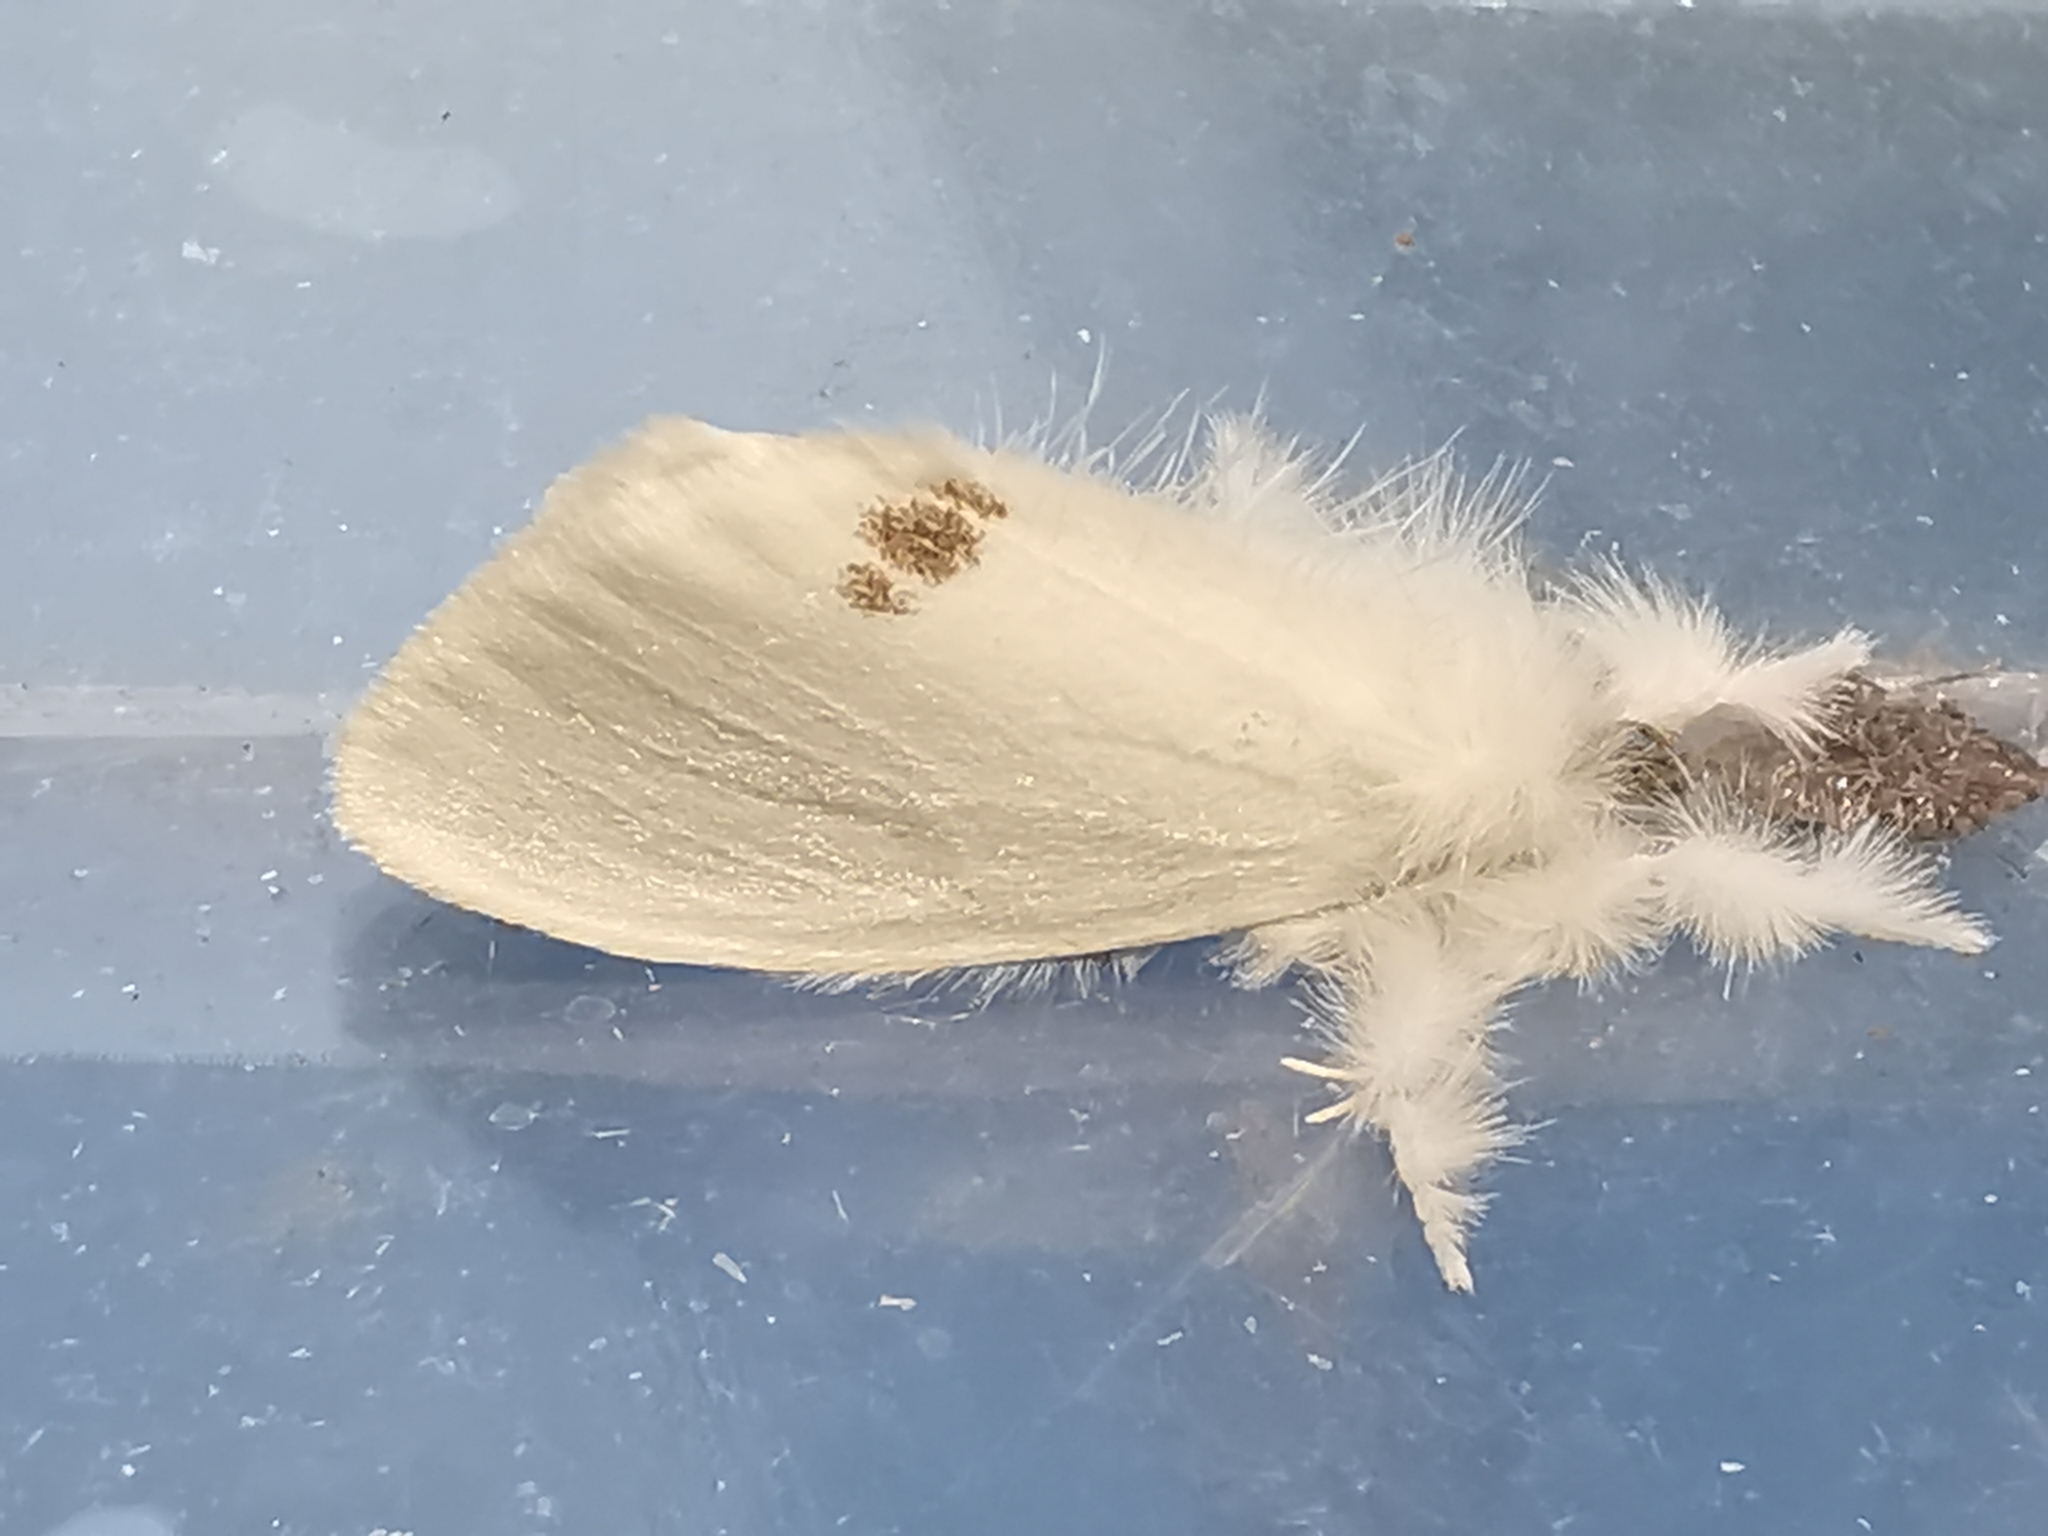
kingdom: Animalia
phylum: Arthropoda
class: Insecta
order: Lepidoptera
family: Erebidae
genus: Sphrageidus
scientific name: Sphrageidus similis
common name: Yellow-tail
